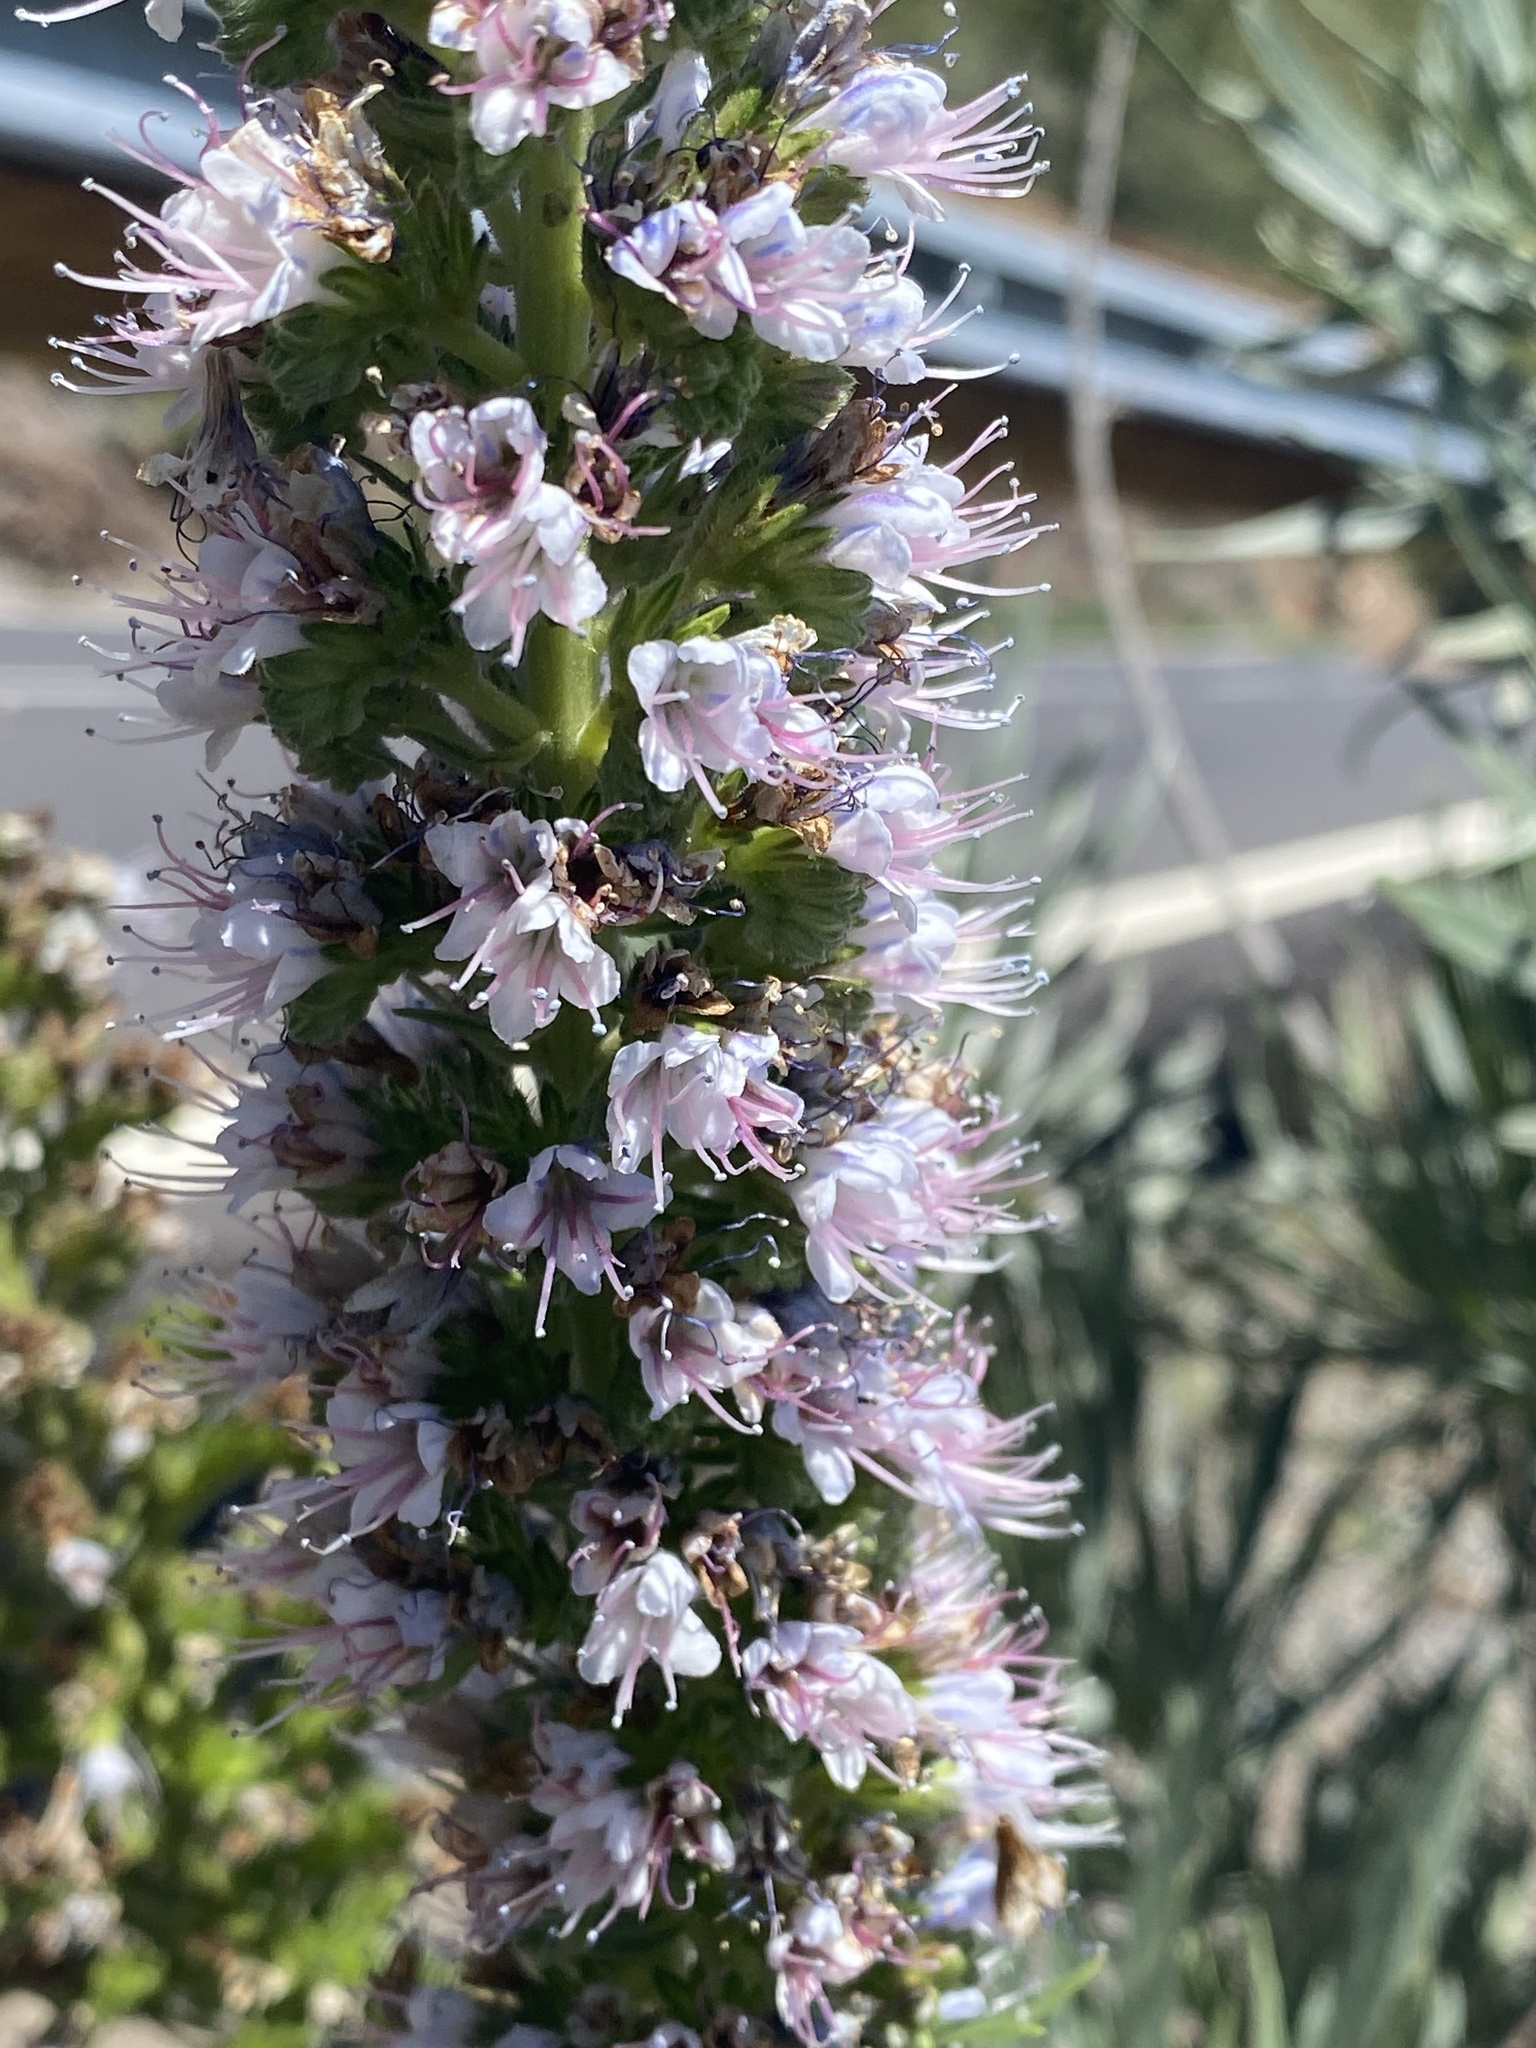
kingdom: Plantae
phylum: Tracheophyta
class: Magnoliopsida
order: Boraginales
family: Boraginaceae
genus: Echium
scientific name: Echium virescens
